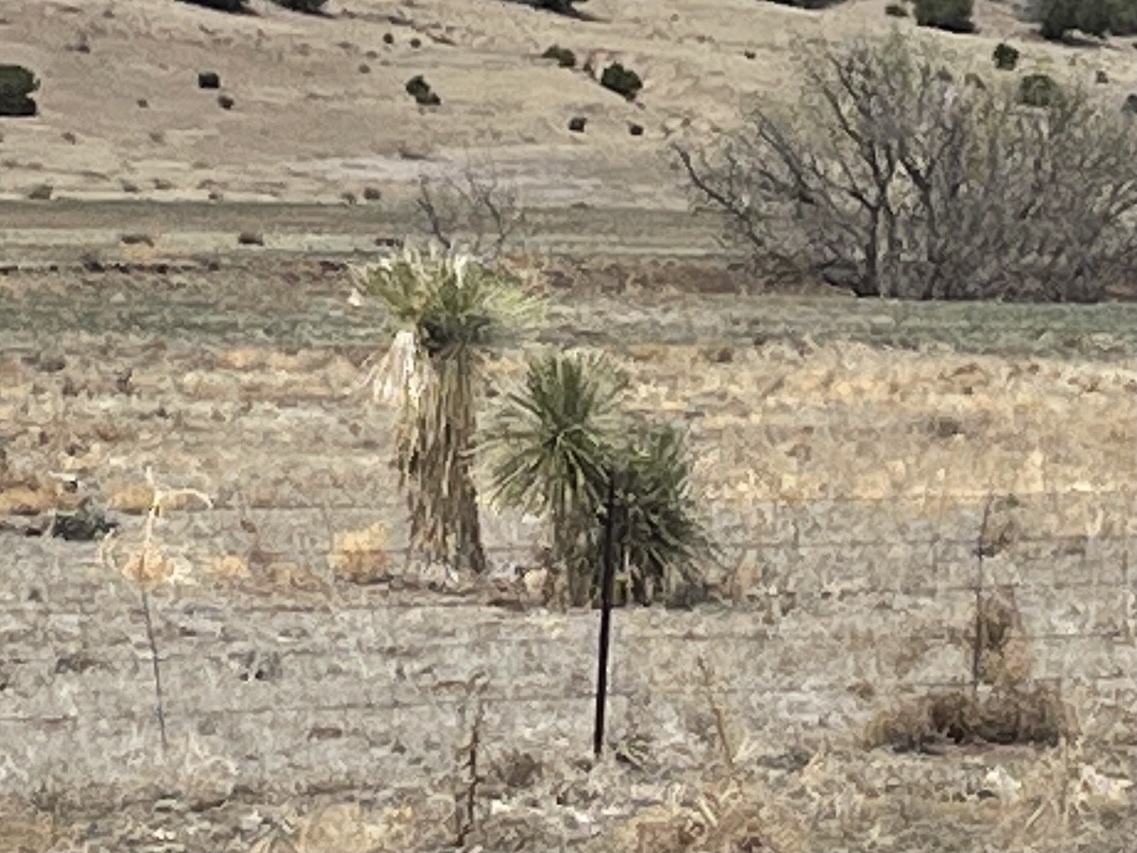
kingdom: Plantae
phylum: Tracheophyta
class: Liliopsida
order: Asparagales
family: Asparagaceae
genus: Yucca
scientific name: Yucca elata
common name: Palmella
